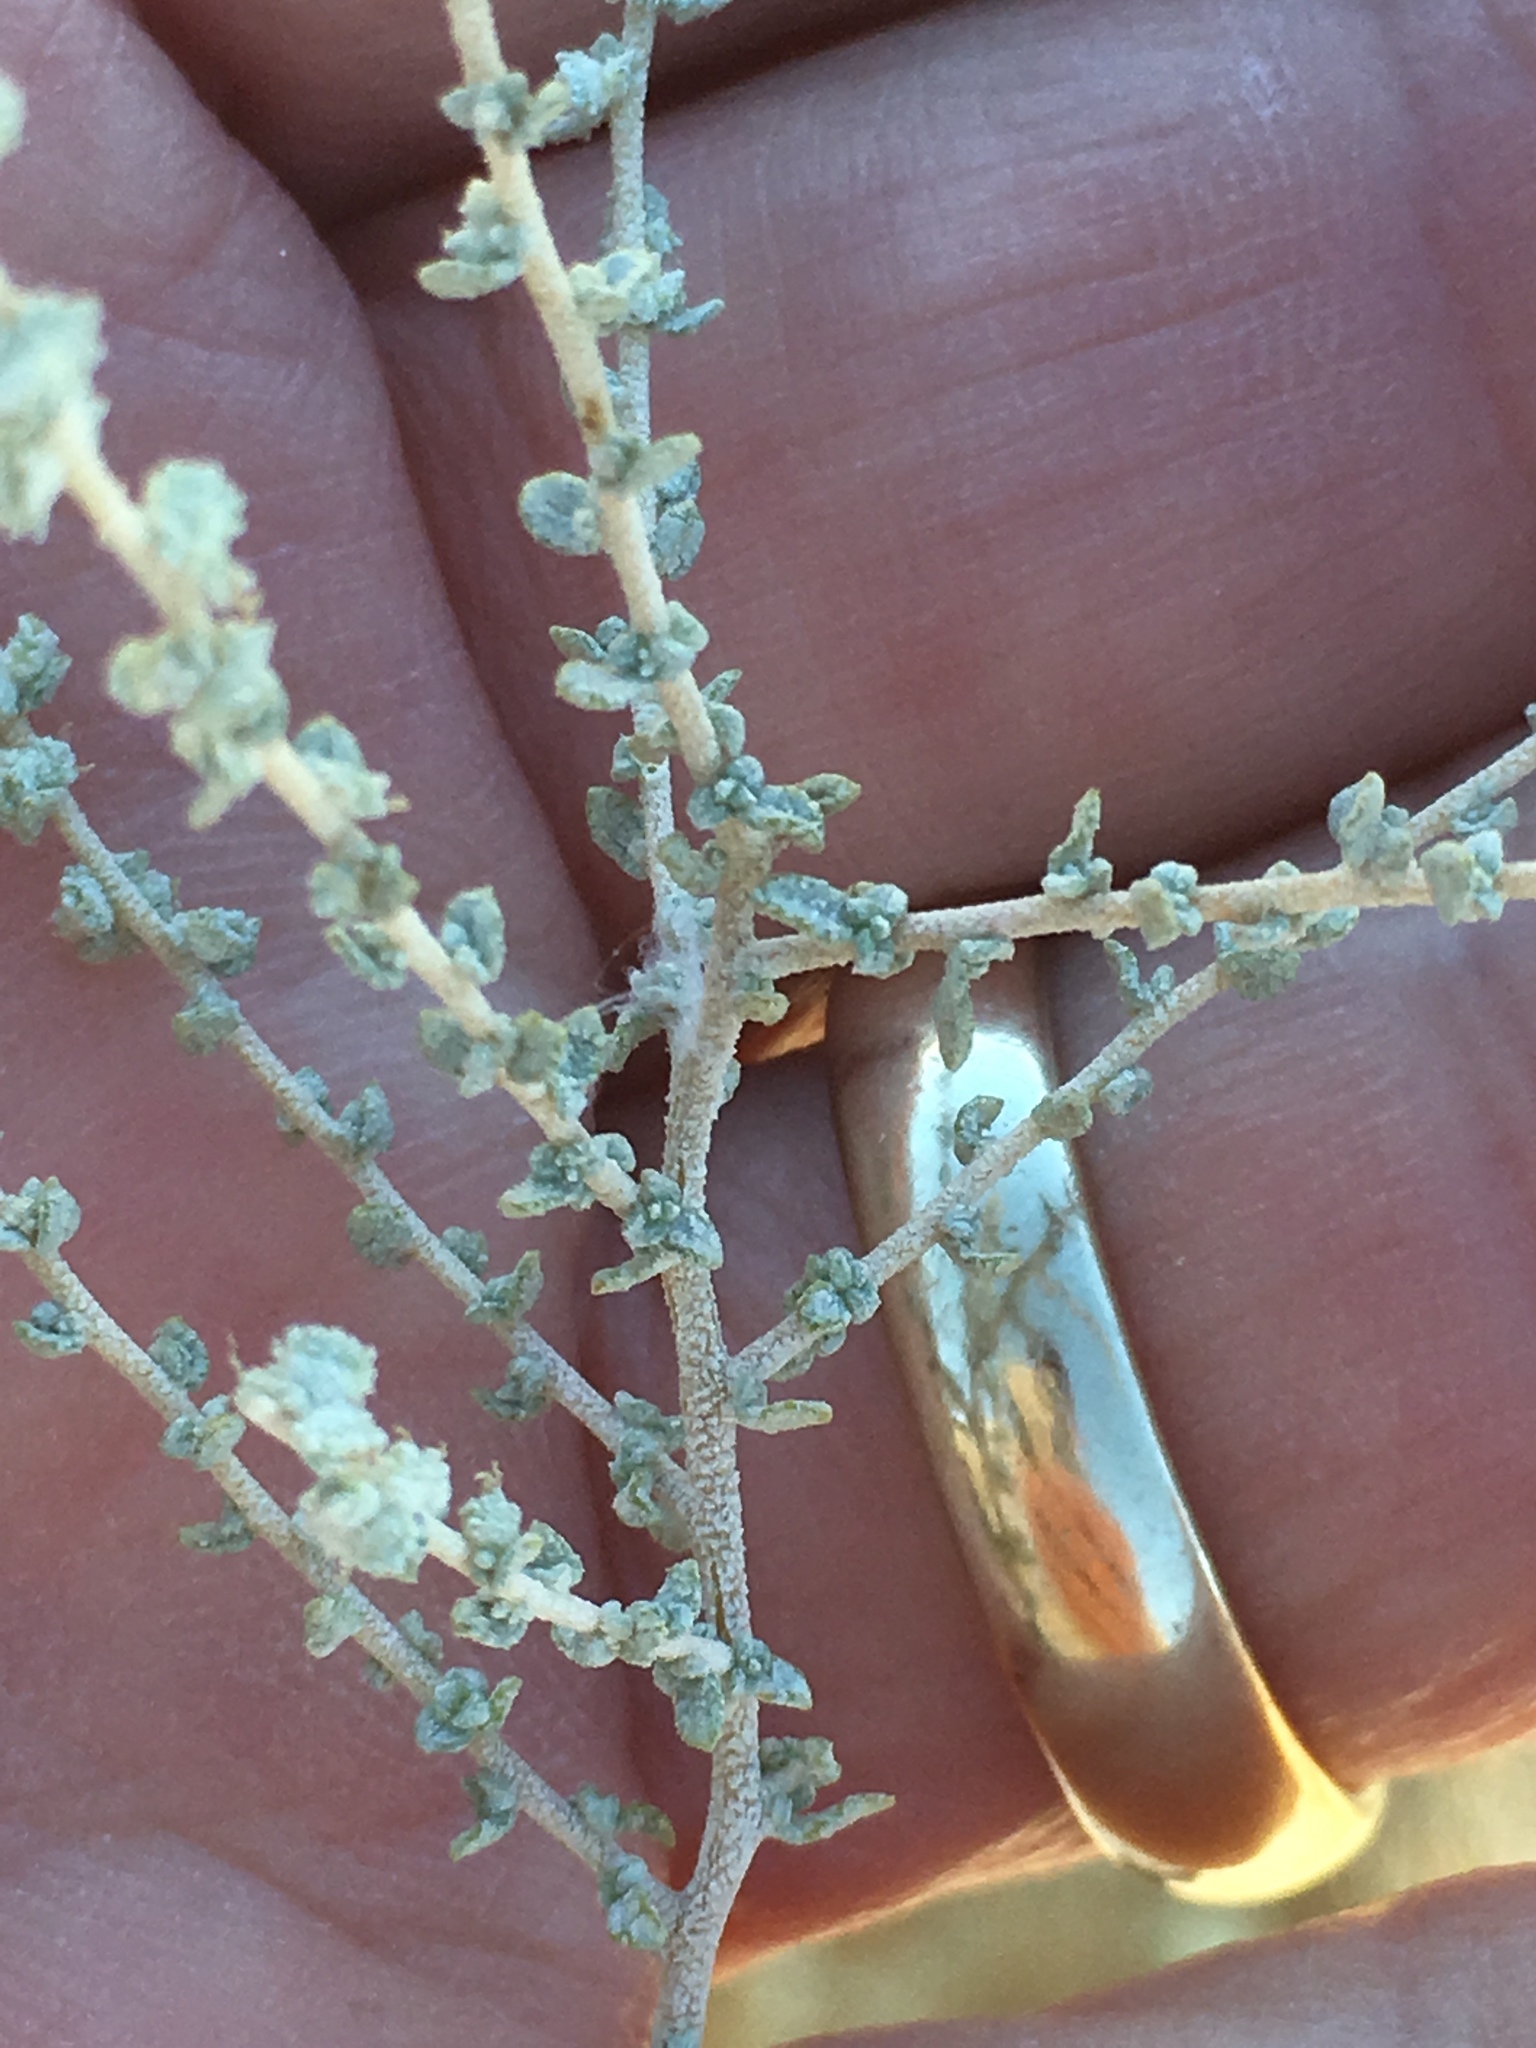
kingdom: Plantae
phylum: Tracheophyta
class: Magnoliopsida
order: Caryophyllales
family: Amaranthaceae
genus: Atriplex
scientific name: Atriplex polycarpa
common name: Desert saltbush
